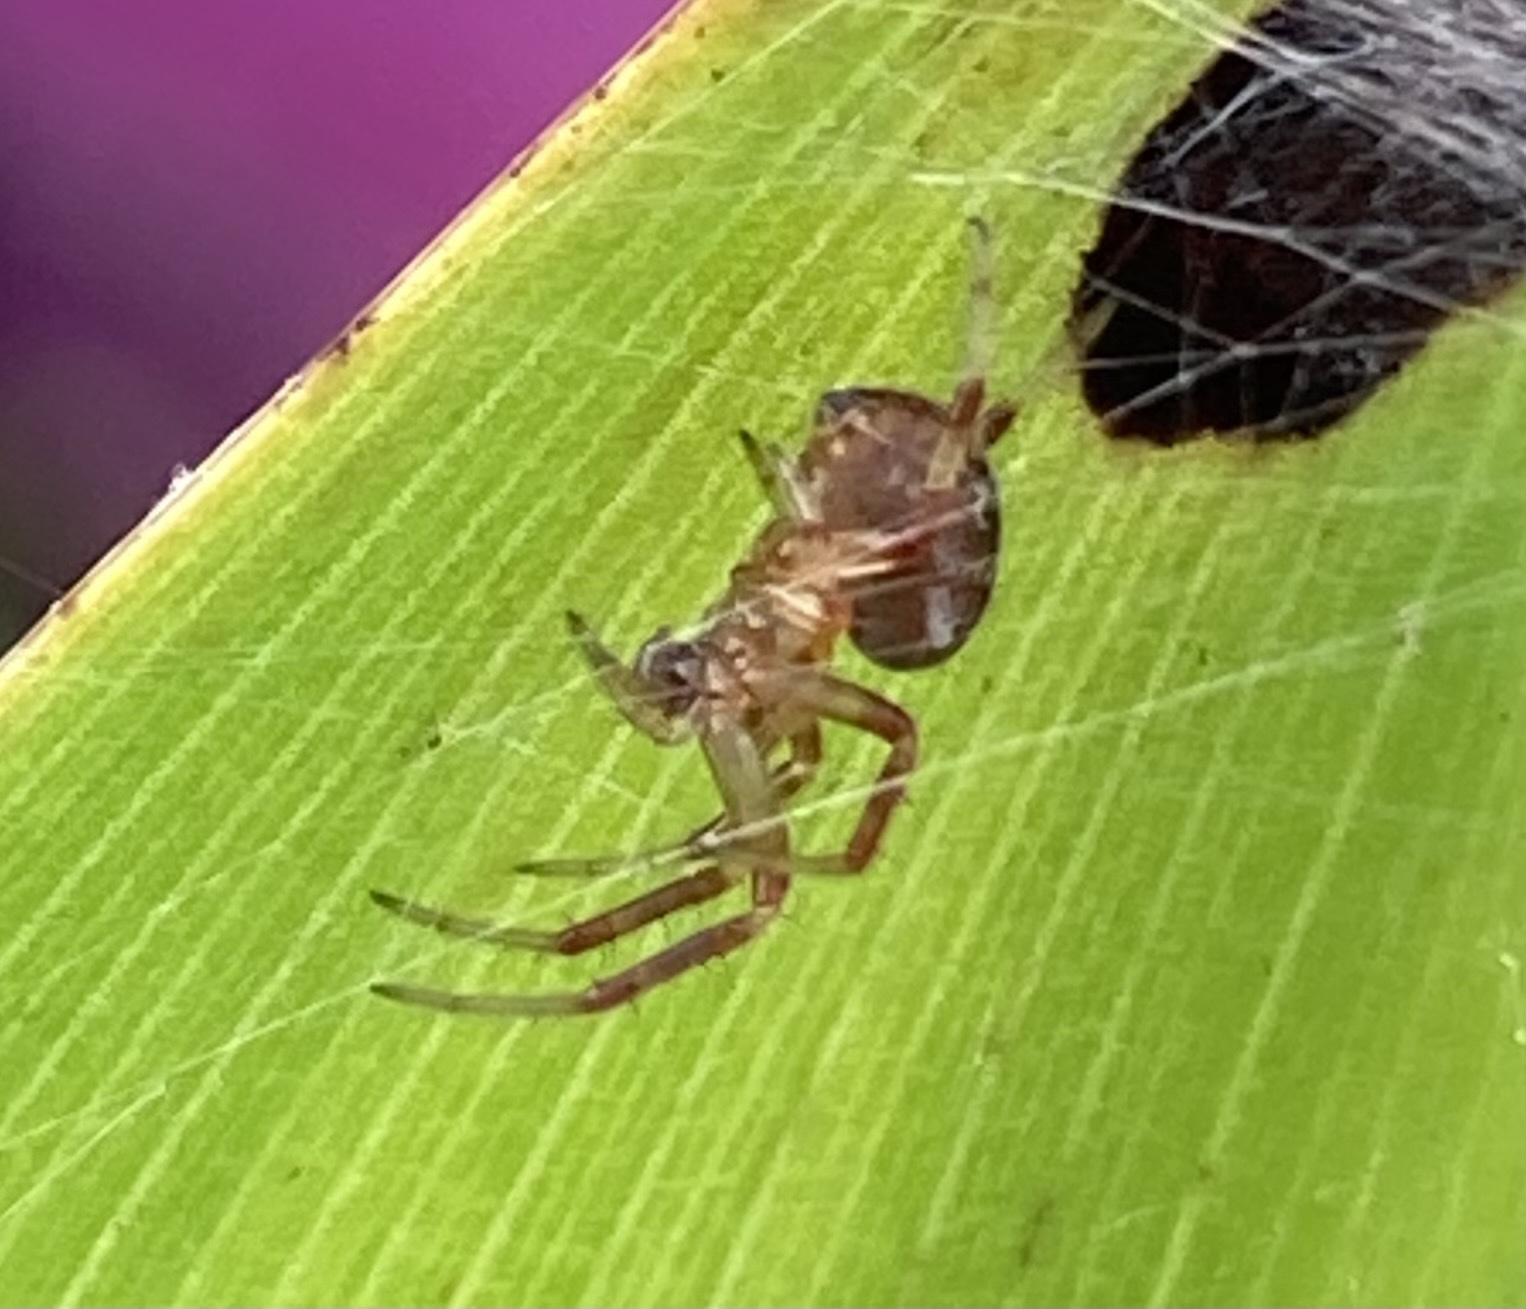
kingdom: Animalia
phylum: Arthropoda
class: Arachnida
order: Araneae
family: Araneidae
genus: Neoscona
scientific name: Neoscona arabesca
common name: Orb weavers
